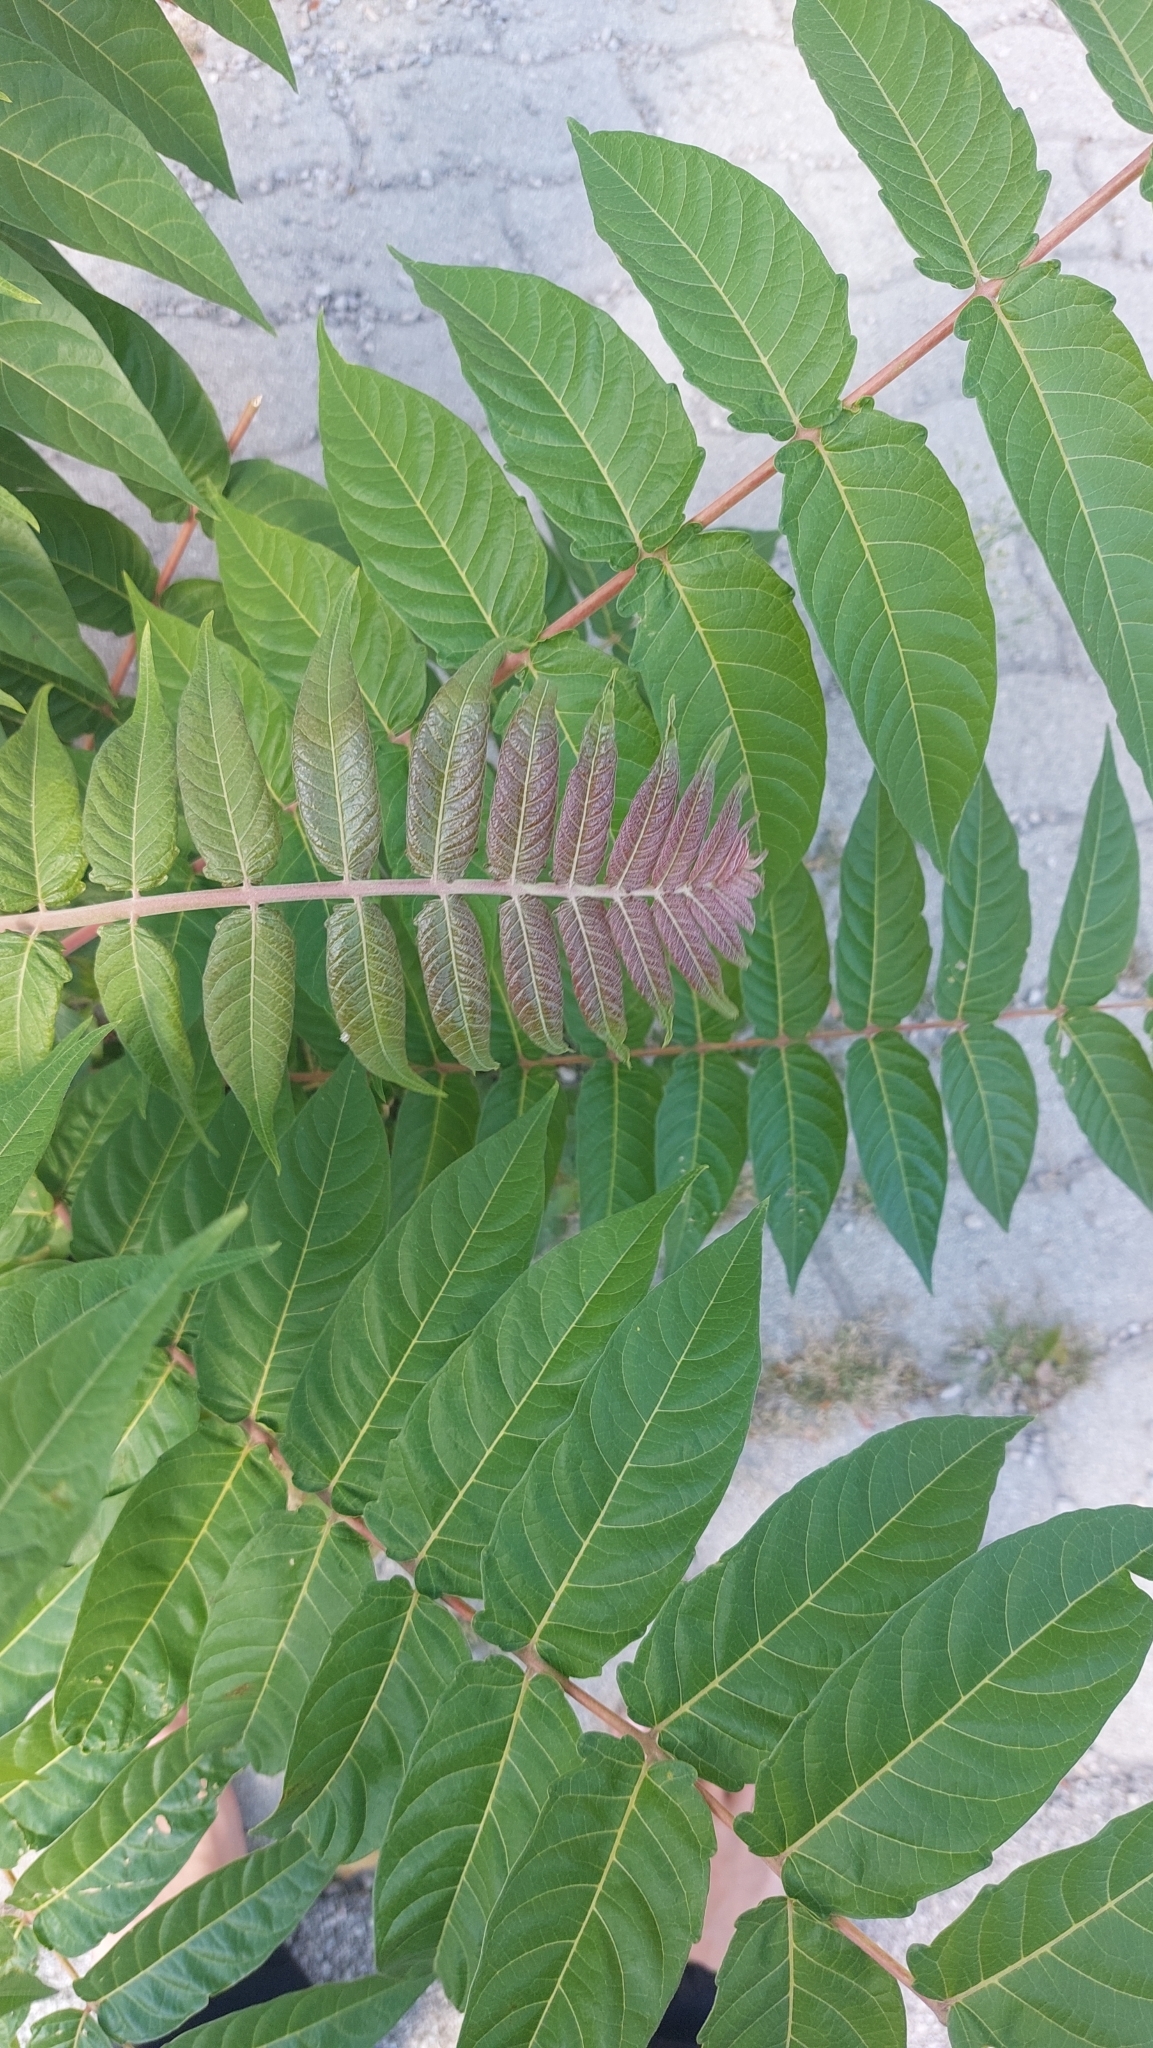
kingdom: Plantae
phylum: Tracheophyta
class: Magnoliopsida
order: Sapindales
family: Simaroubaceae
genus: Ailanthus
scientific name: Ailanthus altissima
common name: Tree-of-heaven
